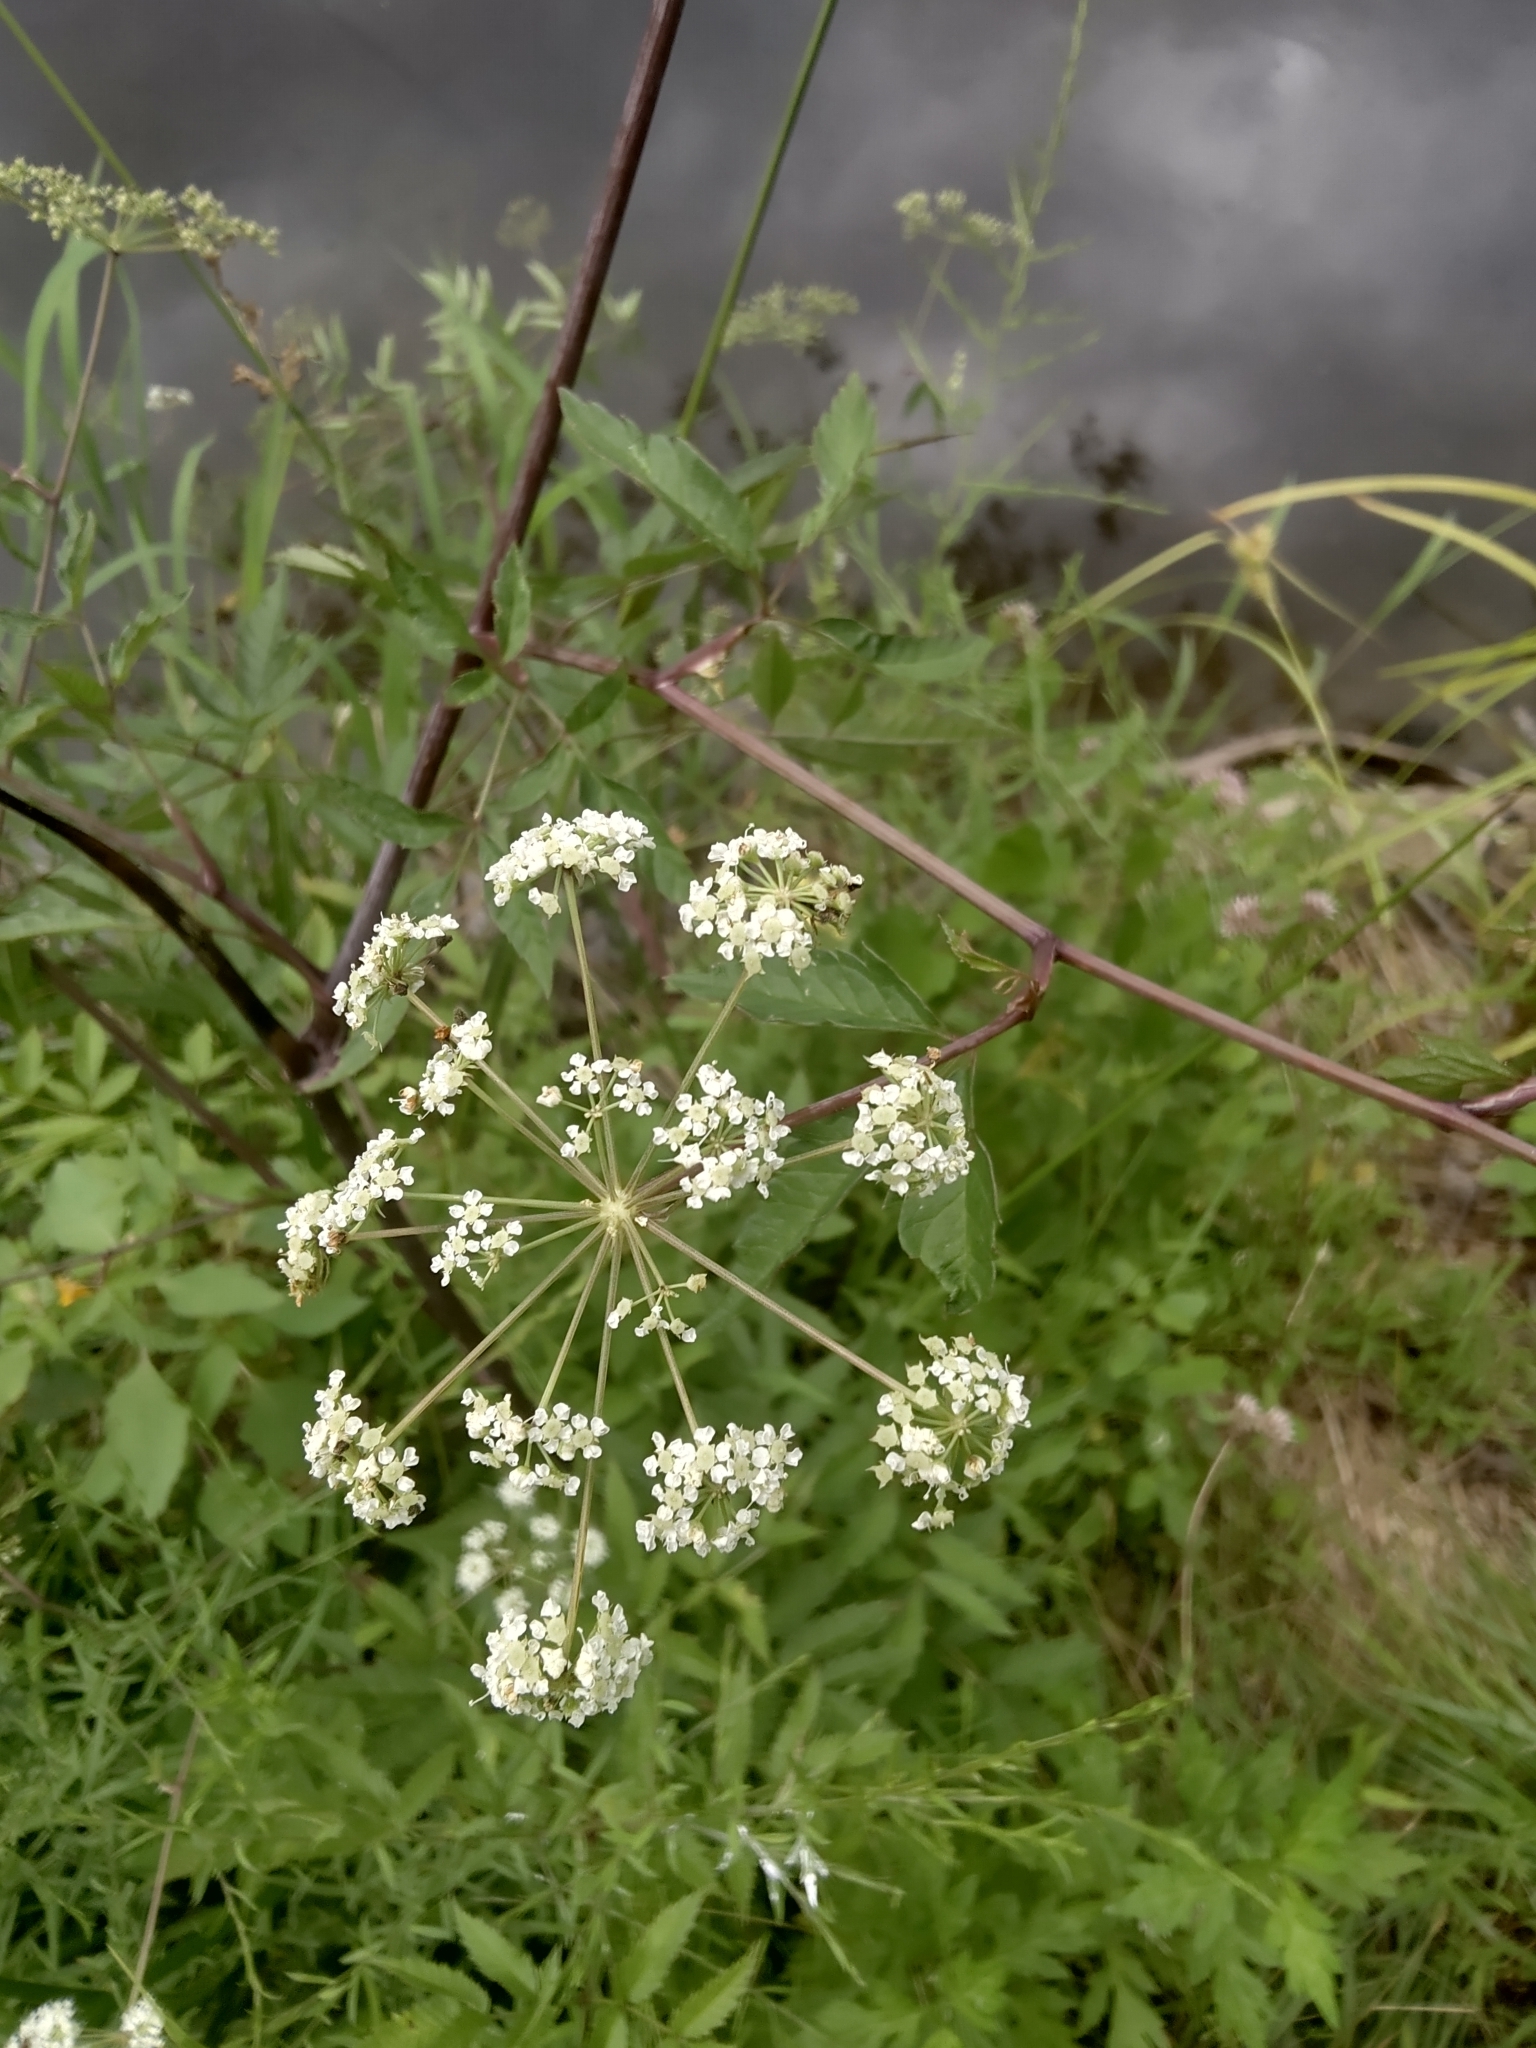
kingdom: Plantae
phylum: Tracheophyta
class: Magnoliopsida
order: Apiales
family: Apiaceae
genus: Angelica
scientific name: Angelica atropurpurea
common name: Great angelica
